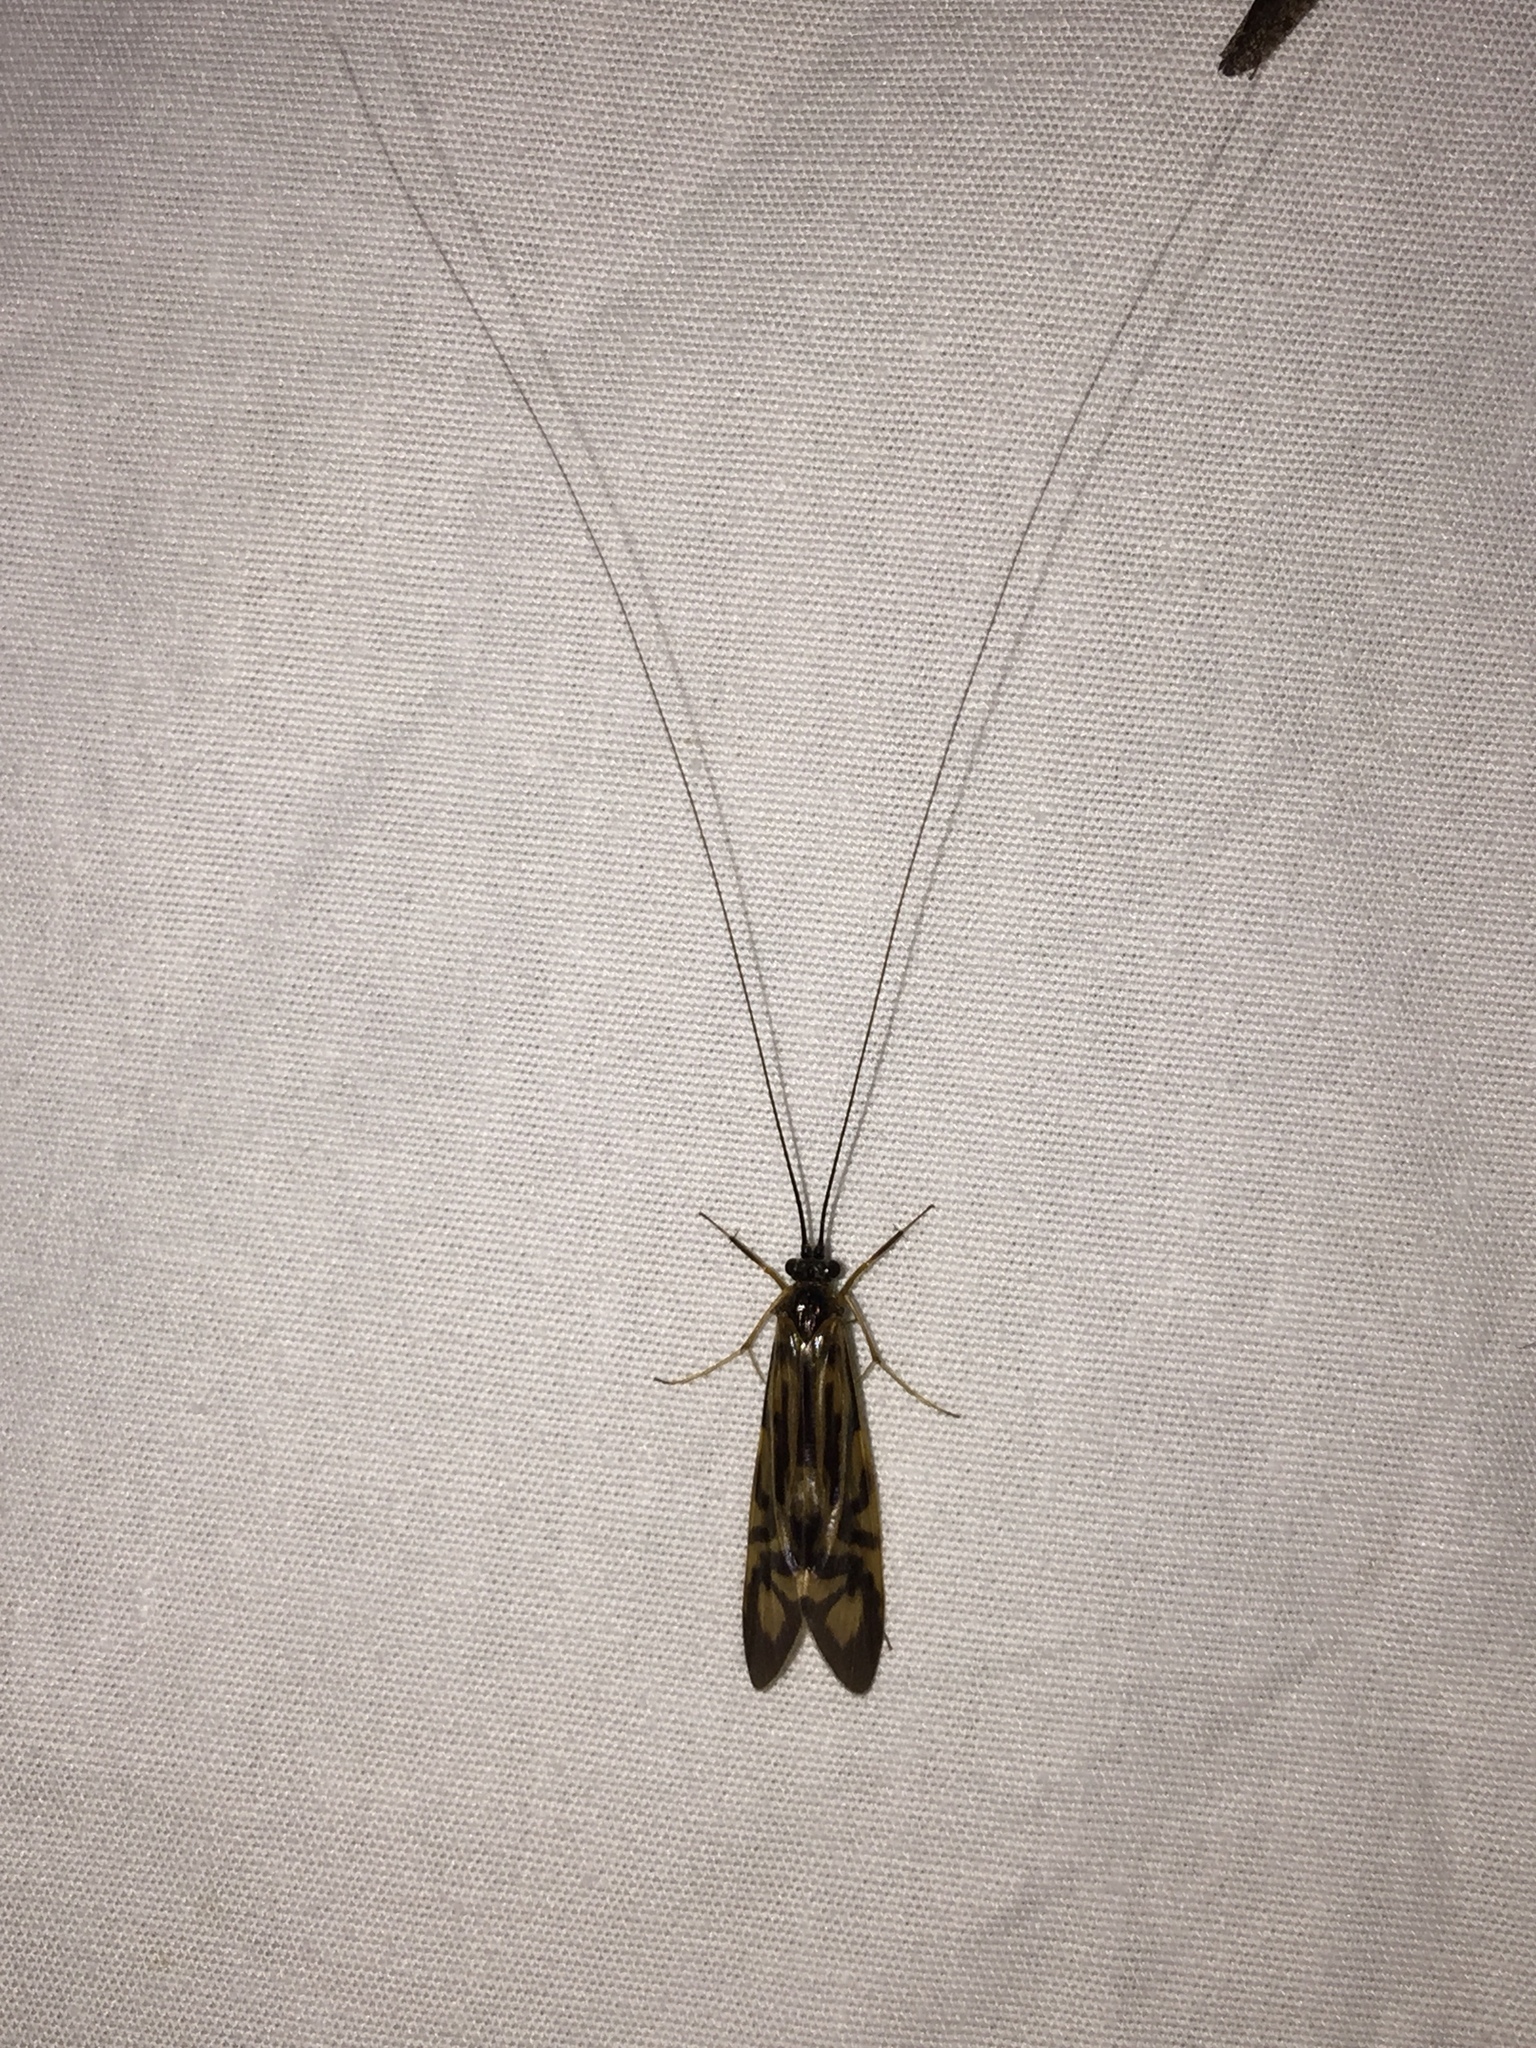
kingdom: Animalia
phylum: Arthropoda
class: Insecta
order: Trichoptera
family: Hydropsychidae
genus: Macrostemum
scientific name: Macrostemum zebratum
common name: Zebra caddisfly
